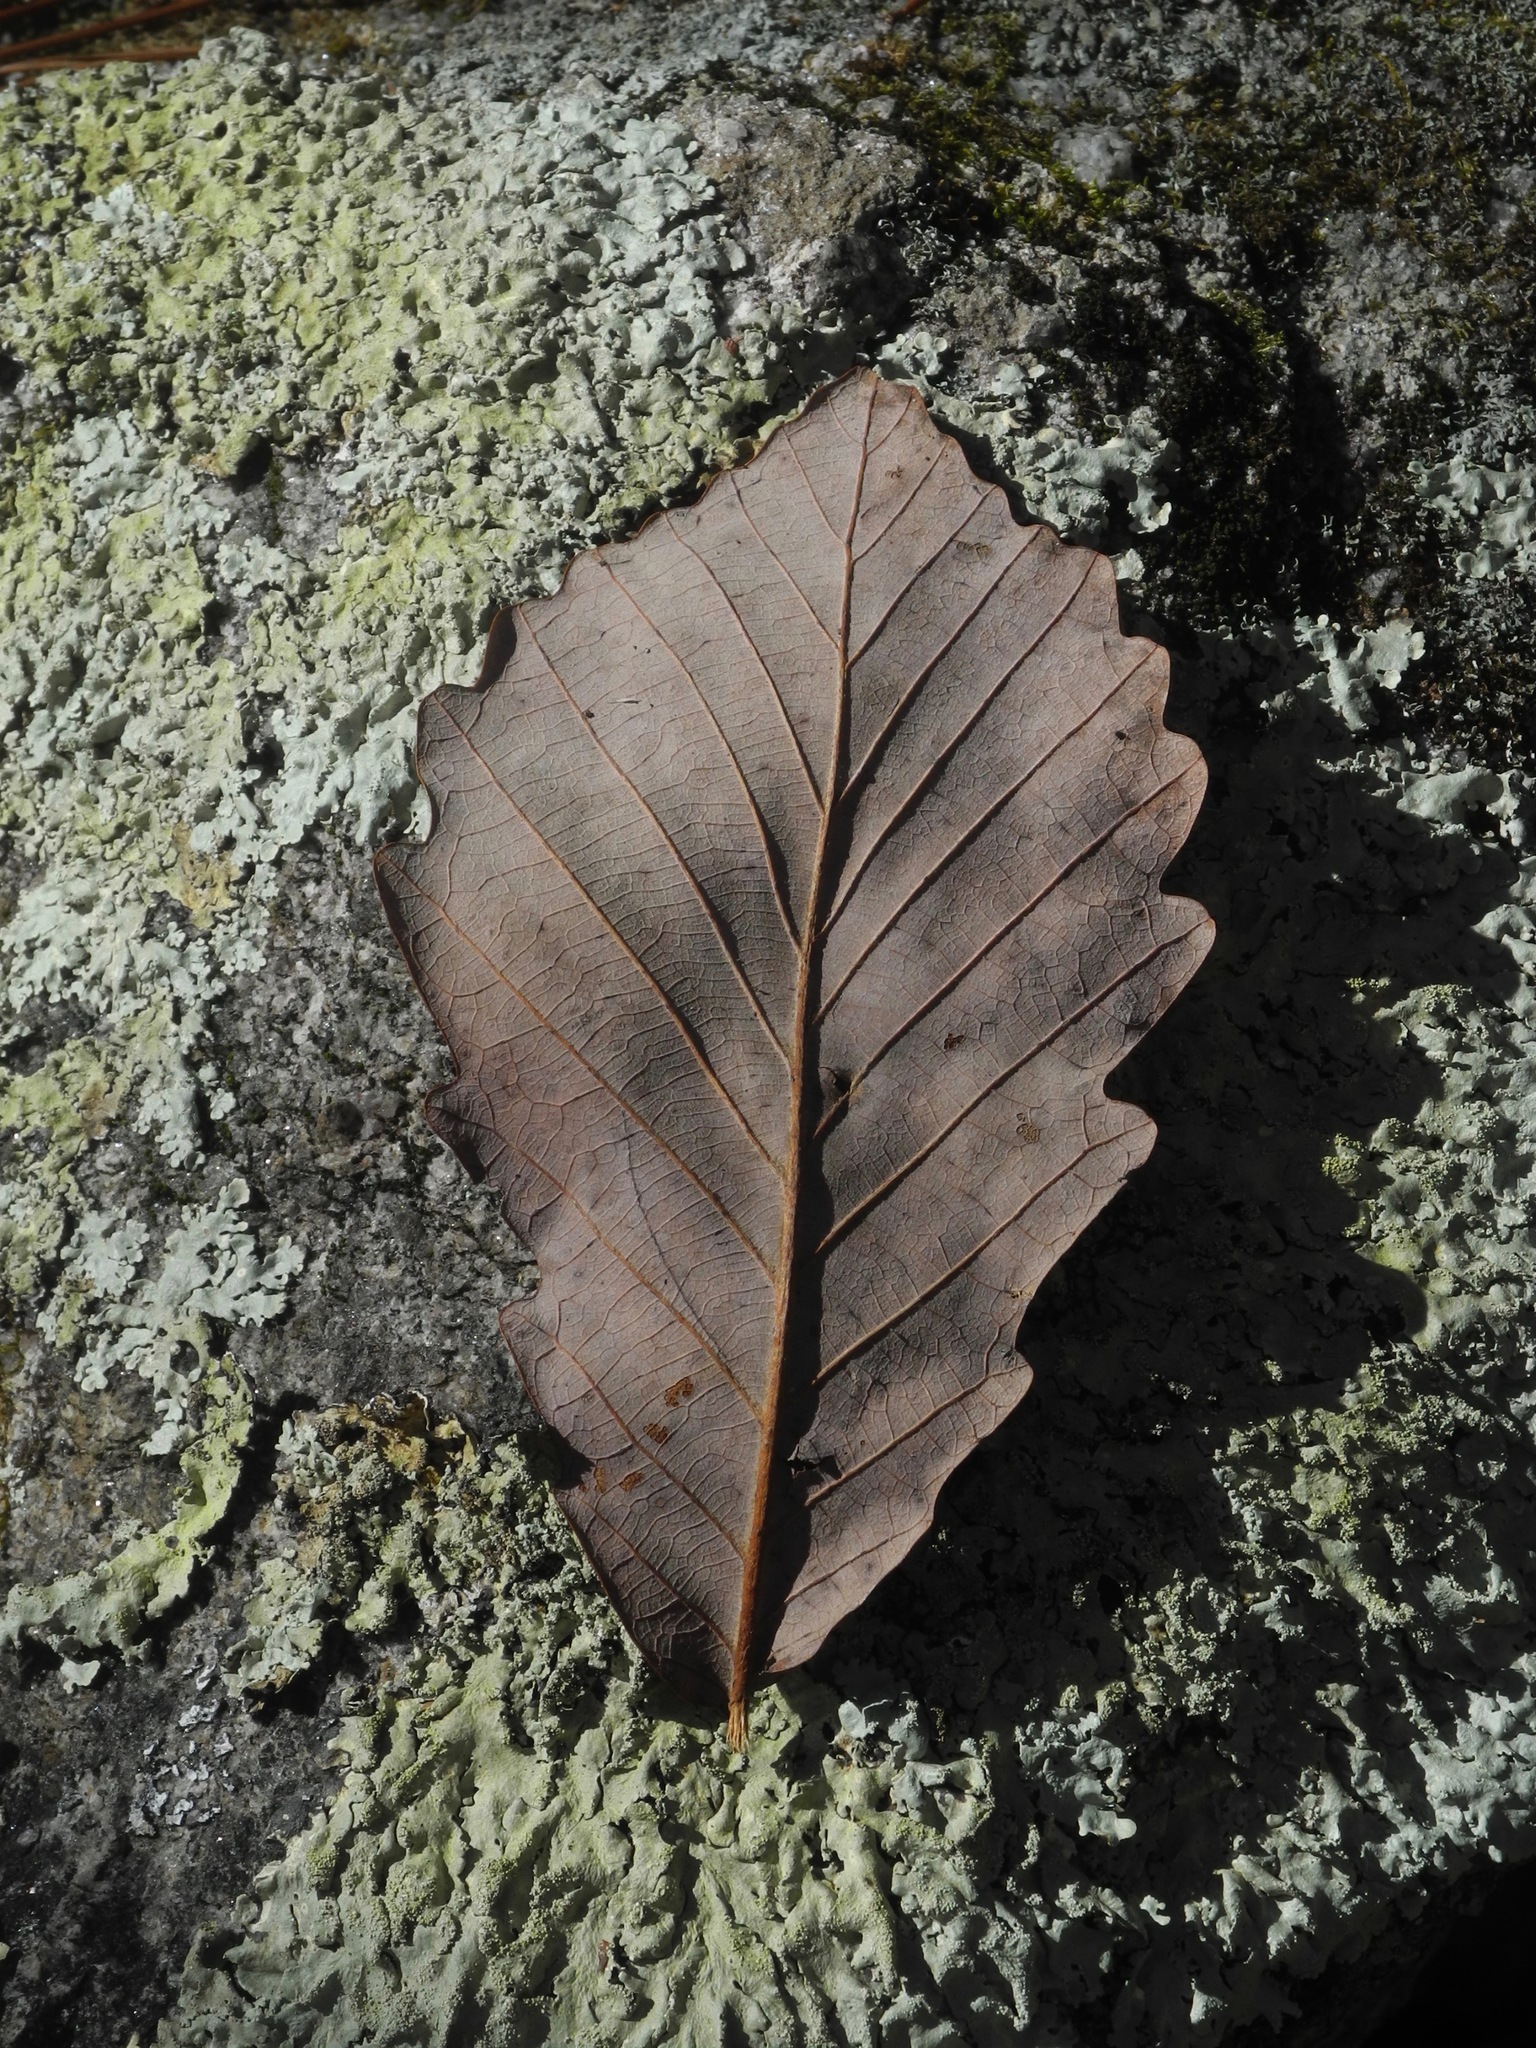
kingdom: Plantae
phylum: Tracheophyta
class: Magnoliopsida
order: Fagales
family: Fagaceae
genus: Quercus
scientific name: Quercus montana
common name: Chestnut oak
